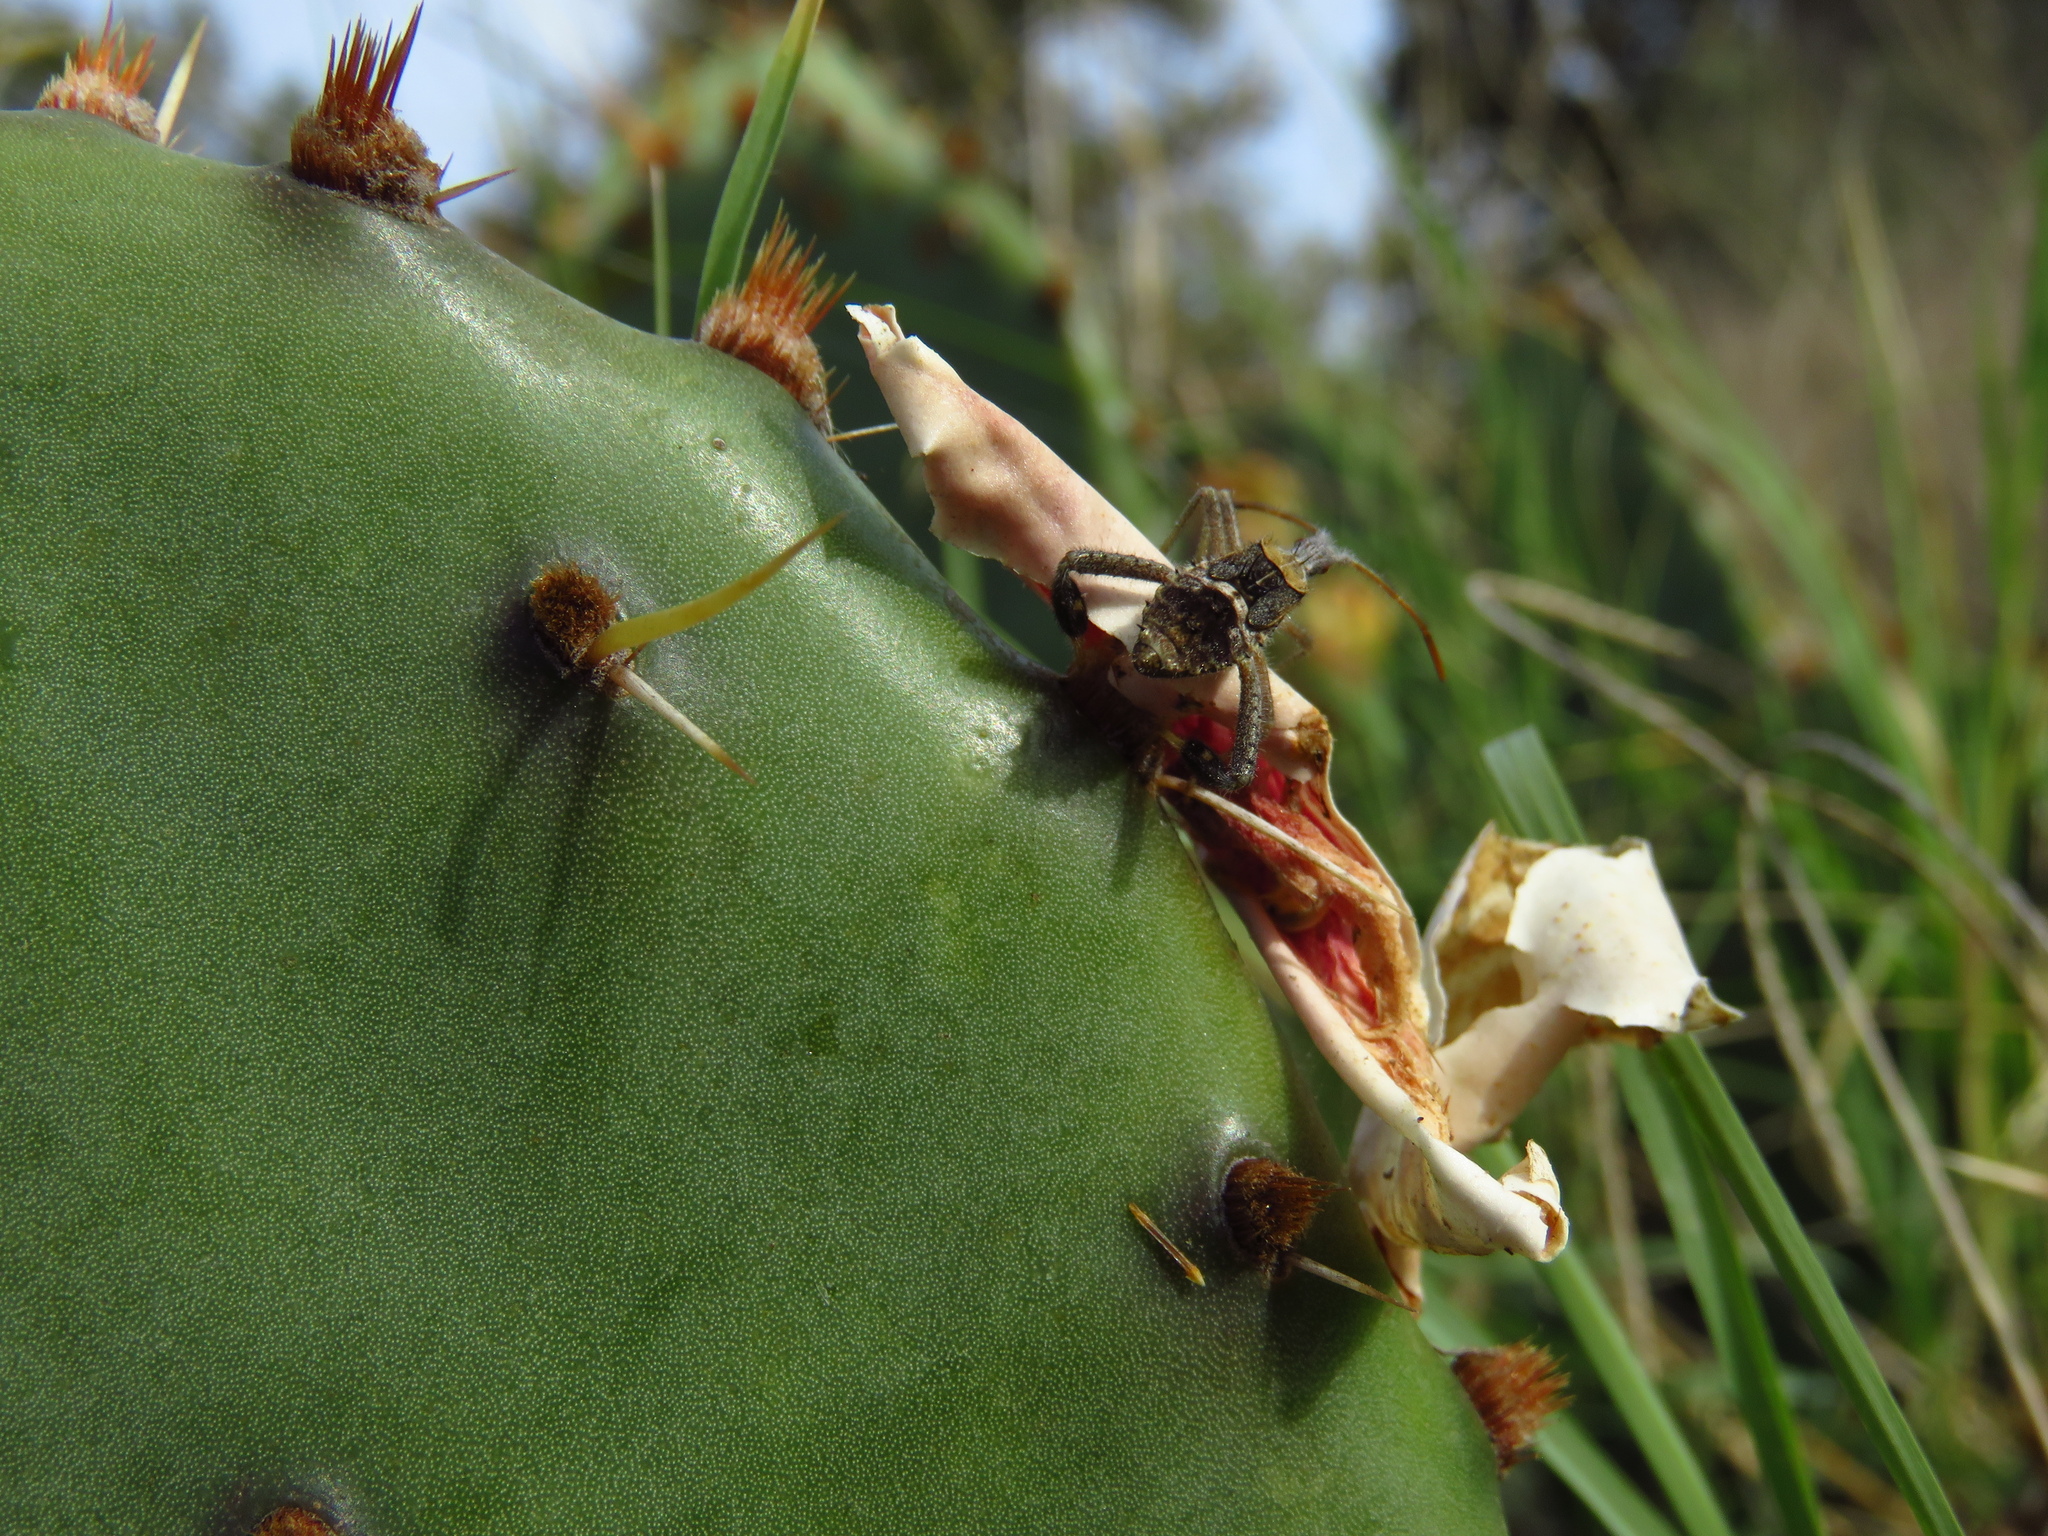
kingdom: Animalia
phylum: Arthropoda
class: Insecta
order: Hemiptera
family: Coreidae
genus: Narnia
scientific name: Narnia femorata
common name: Leaf-footed cactus bug
